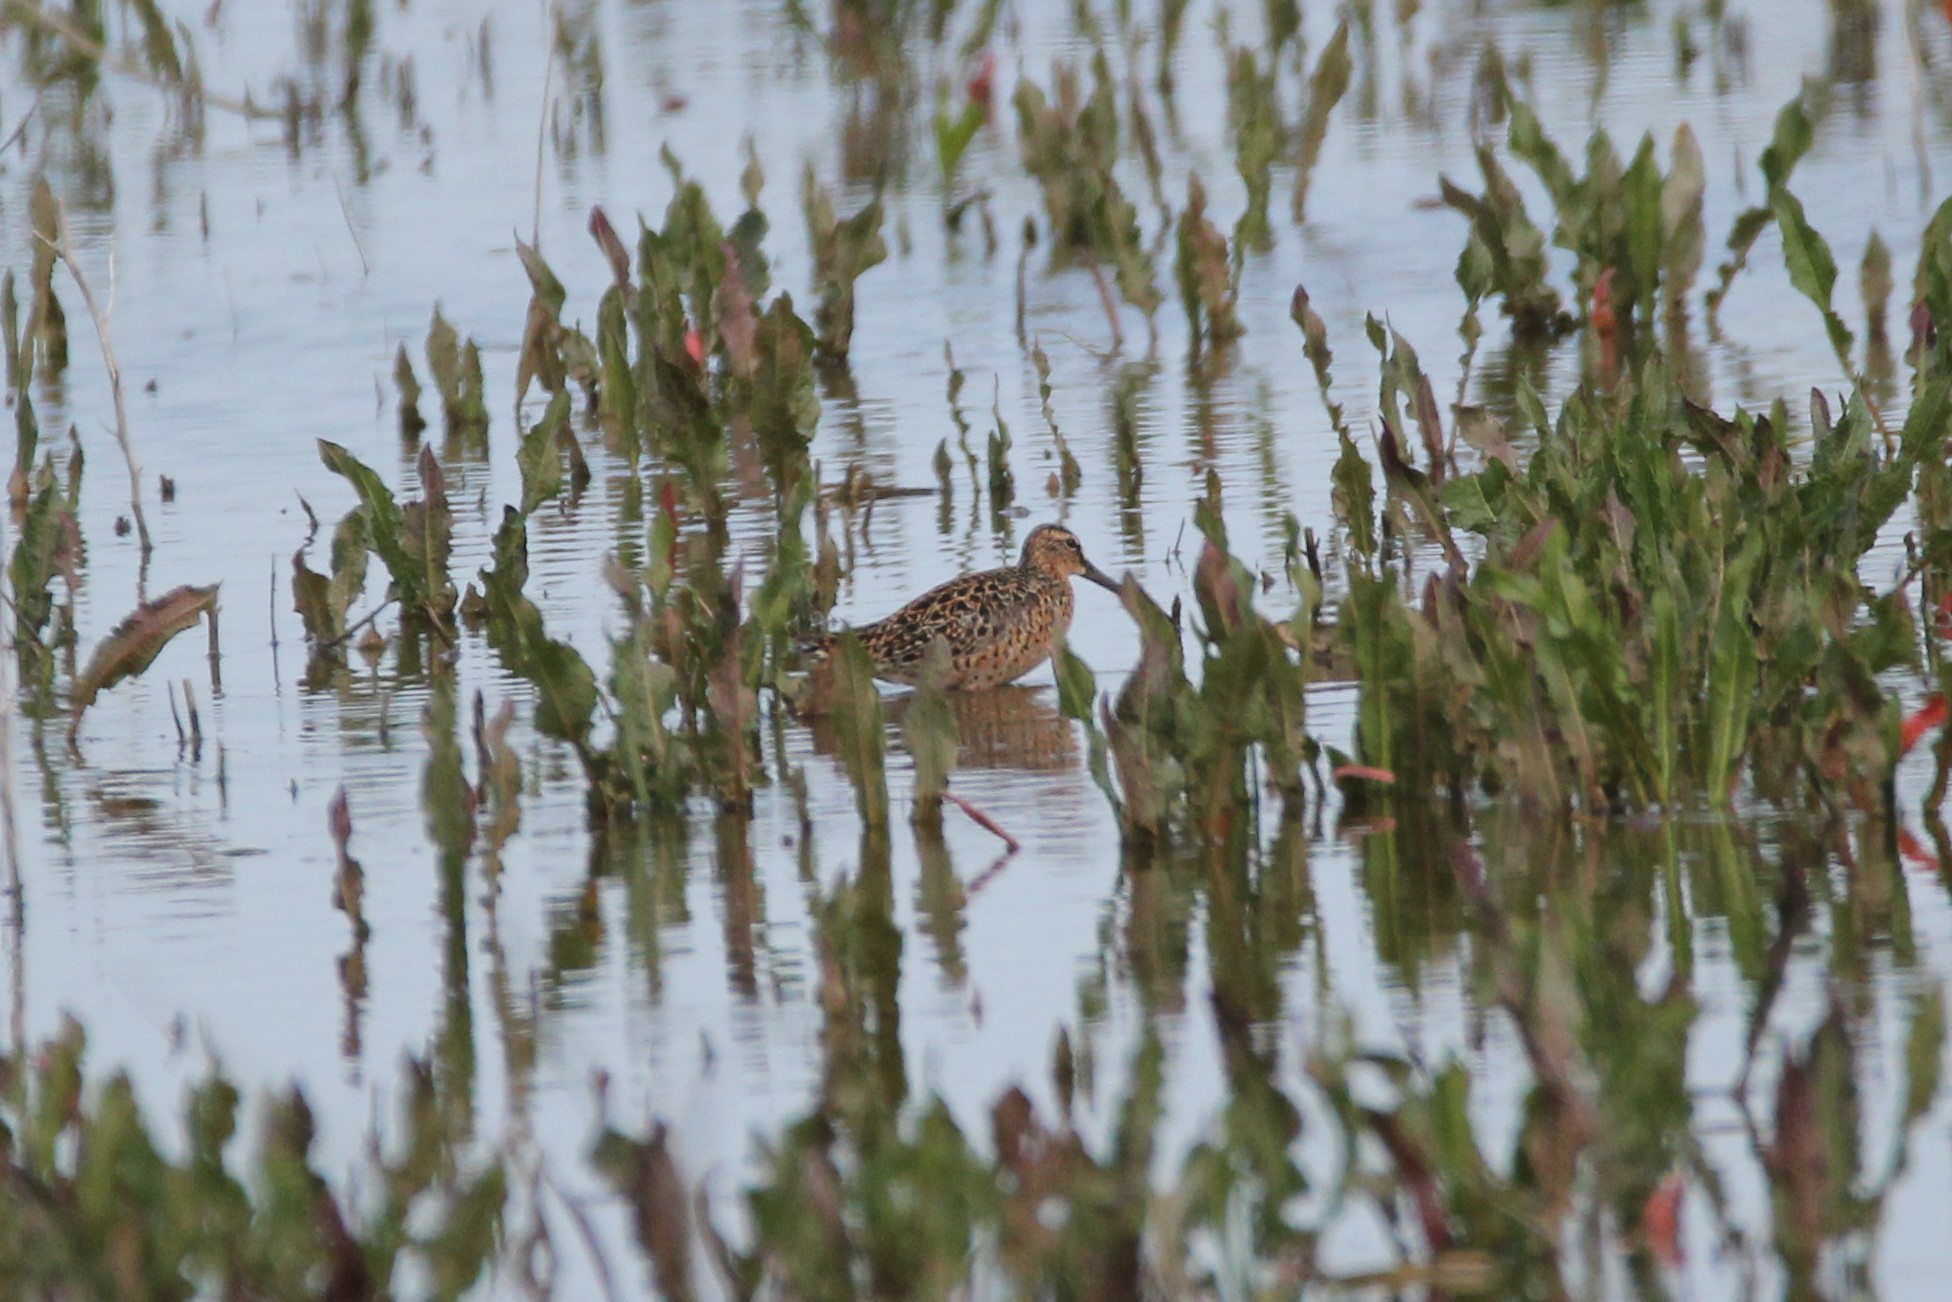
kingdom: Animalia
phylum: Chordata
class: Aves
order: Charadriiformes
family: Scolopacidae
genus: Limnodromus
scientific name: Limnodromus griseus
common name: Short-billed dowitcher
